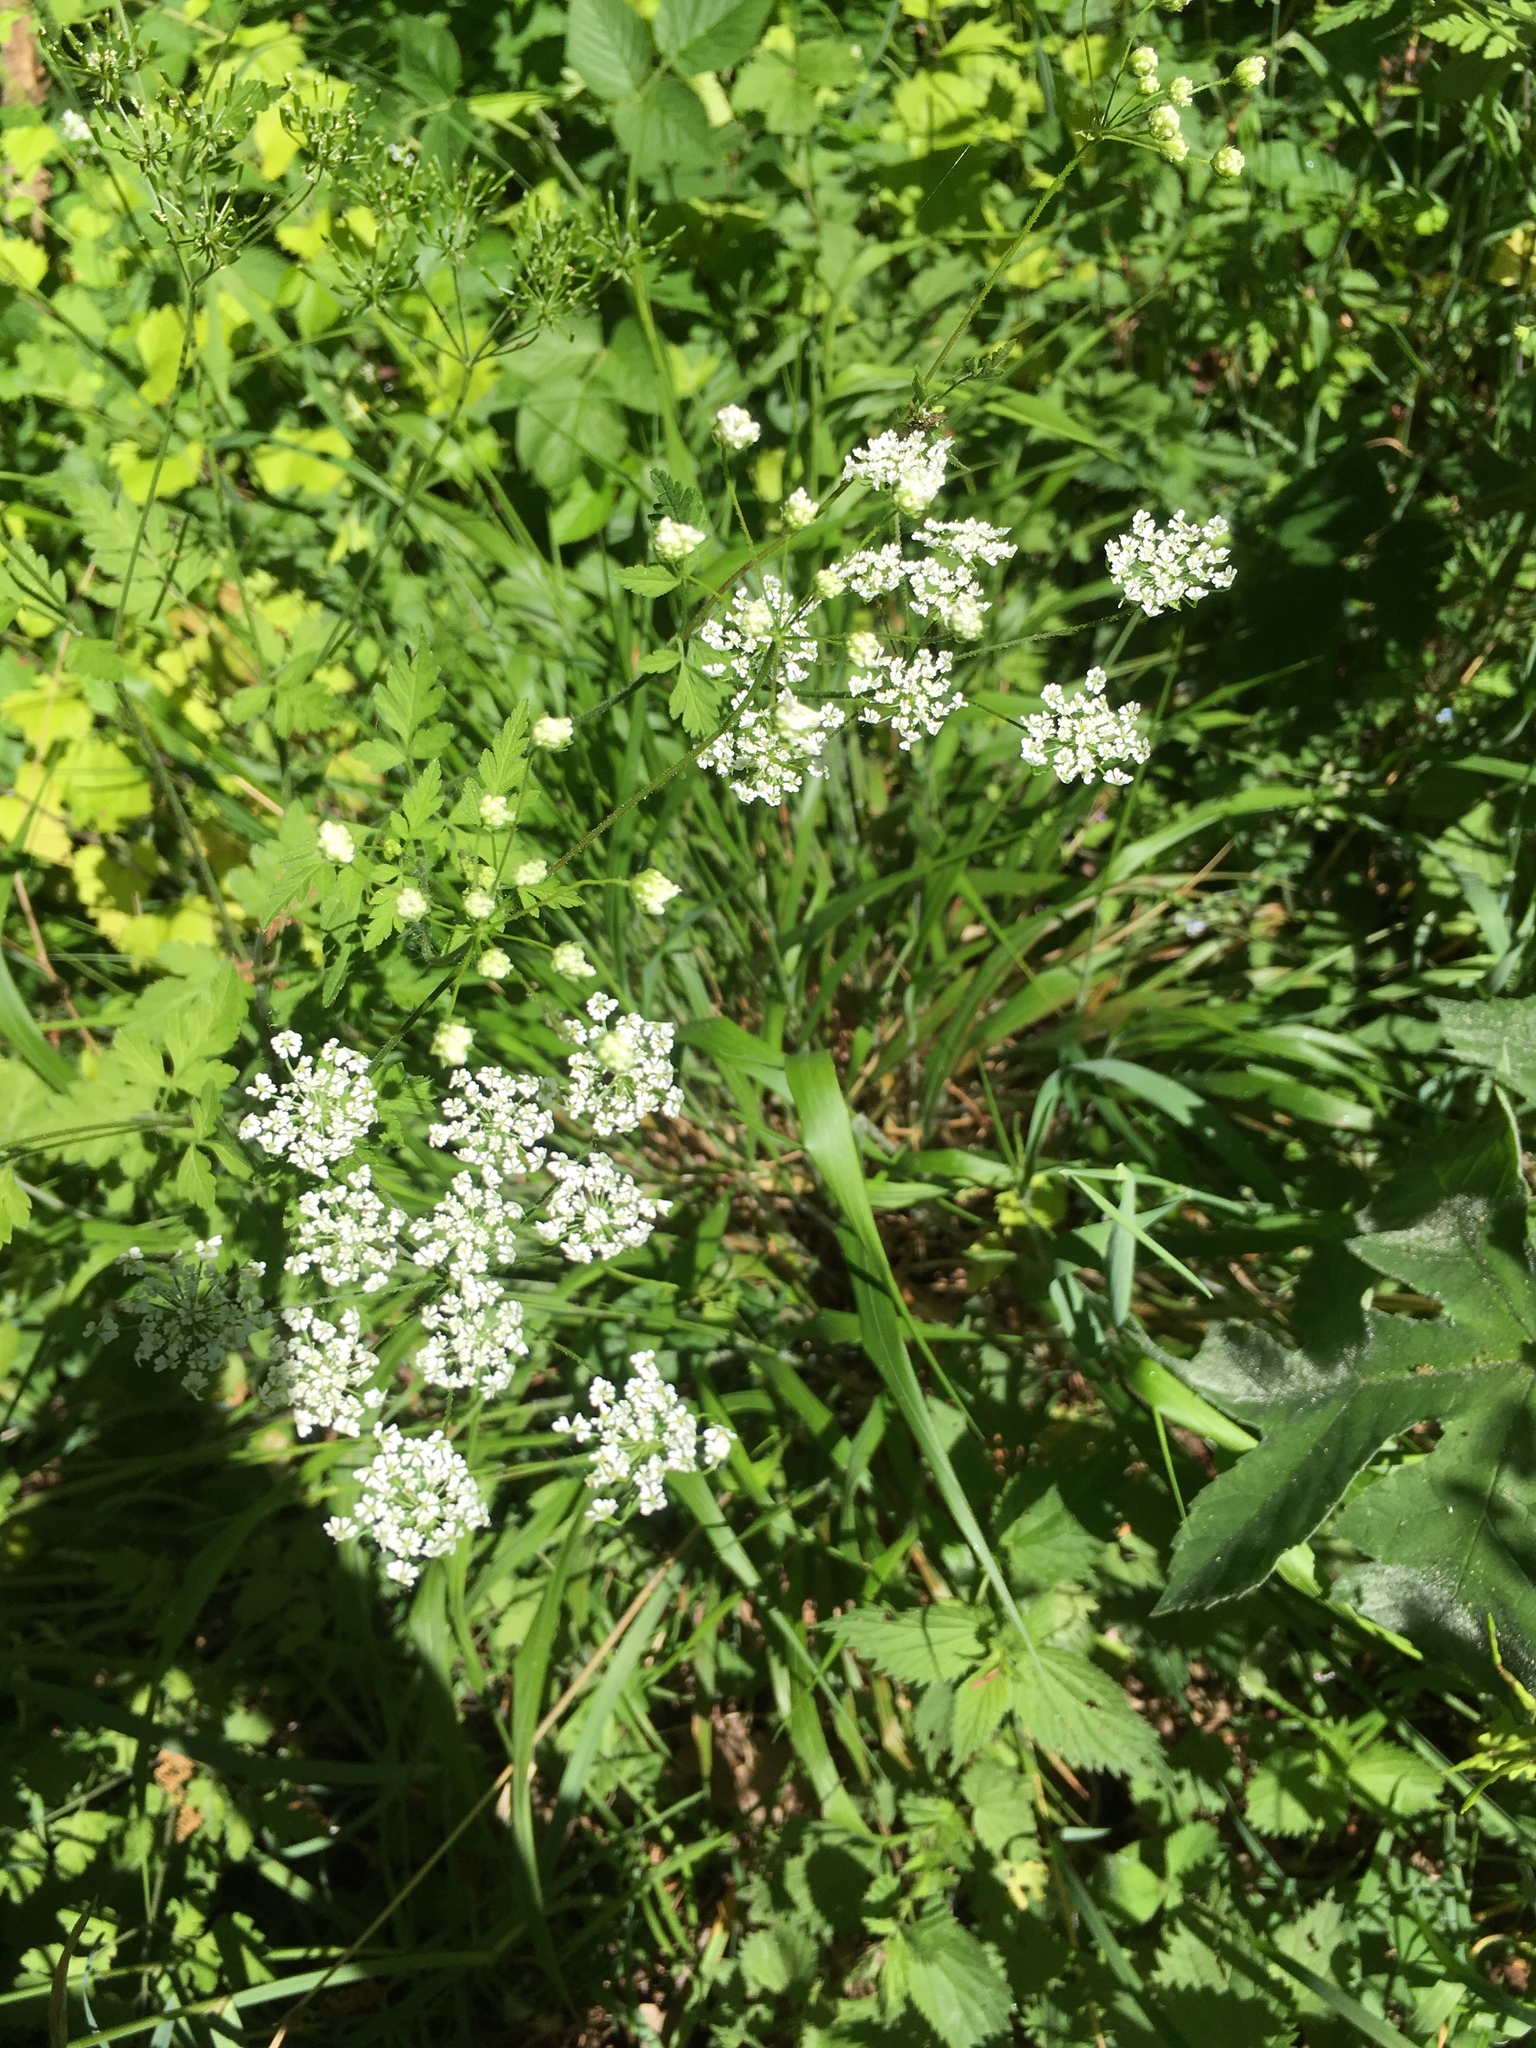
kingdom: Plantae
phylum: Tracheophyta
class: Magnoliopsida
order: Apiales
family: Apiaceae
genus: Chaerophyllum
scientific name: Chaerophyllum temulum
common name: Rough chervil
